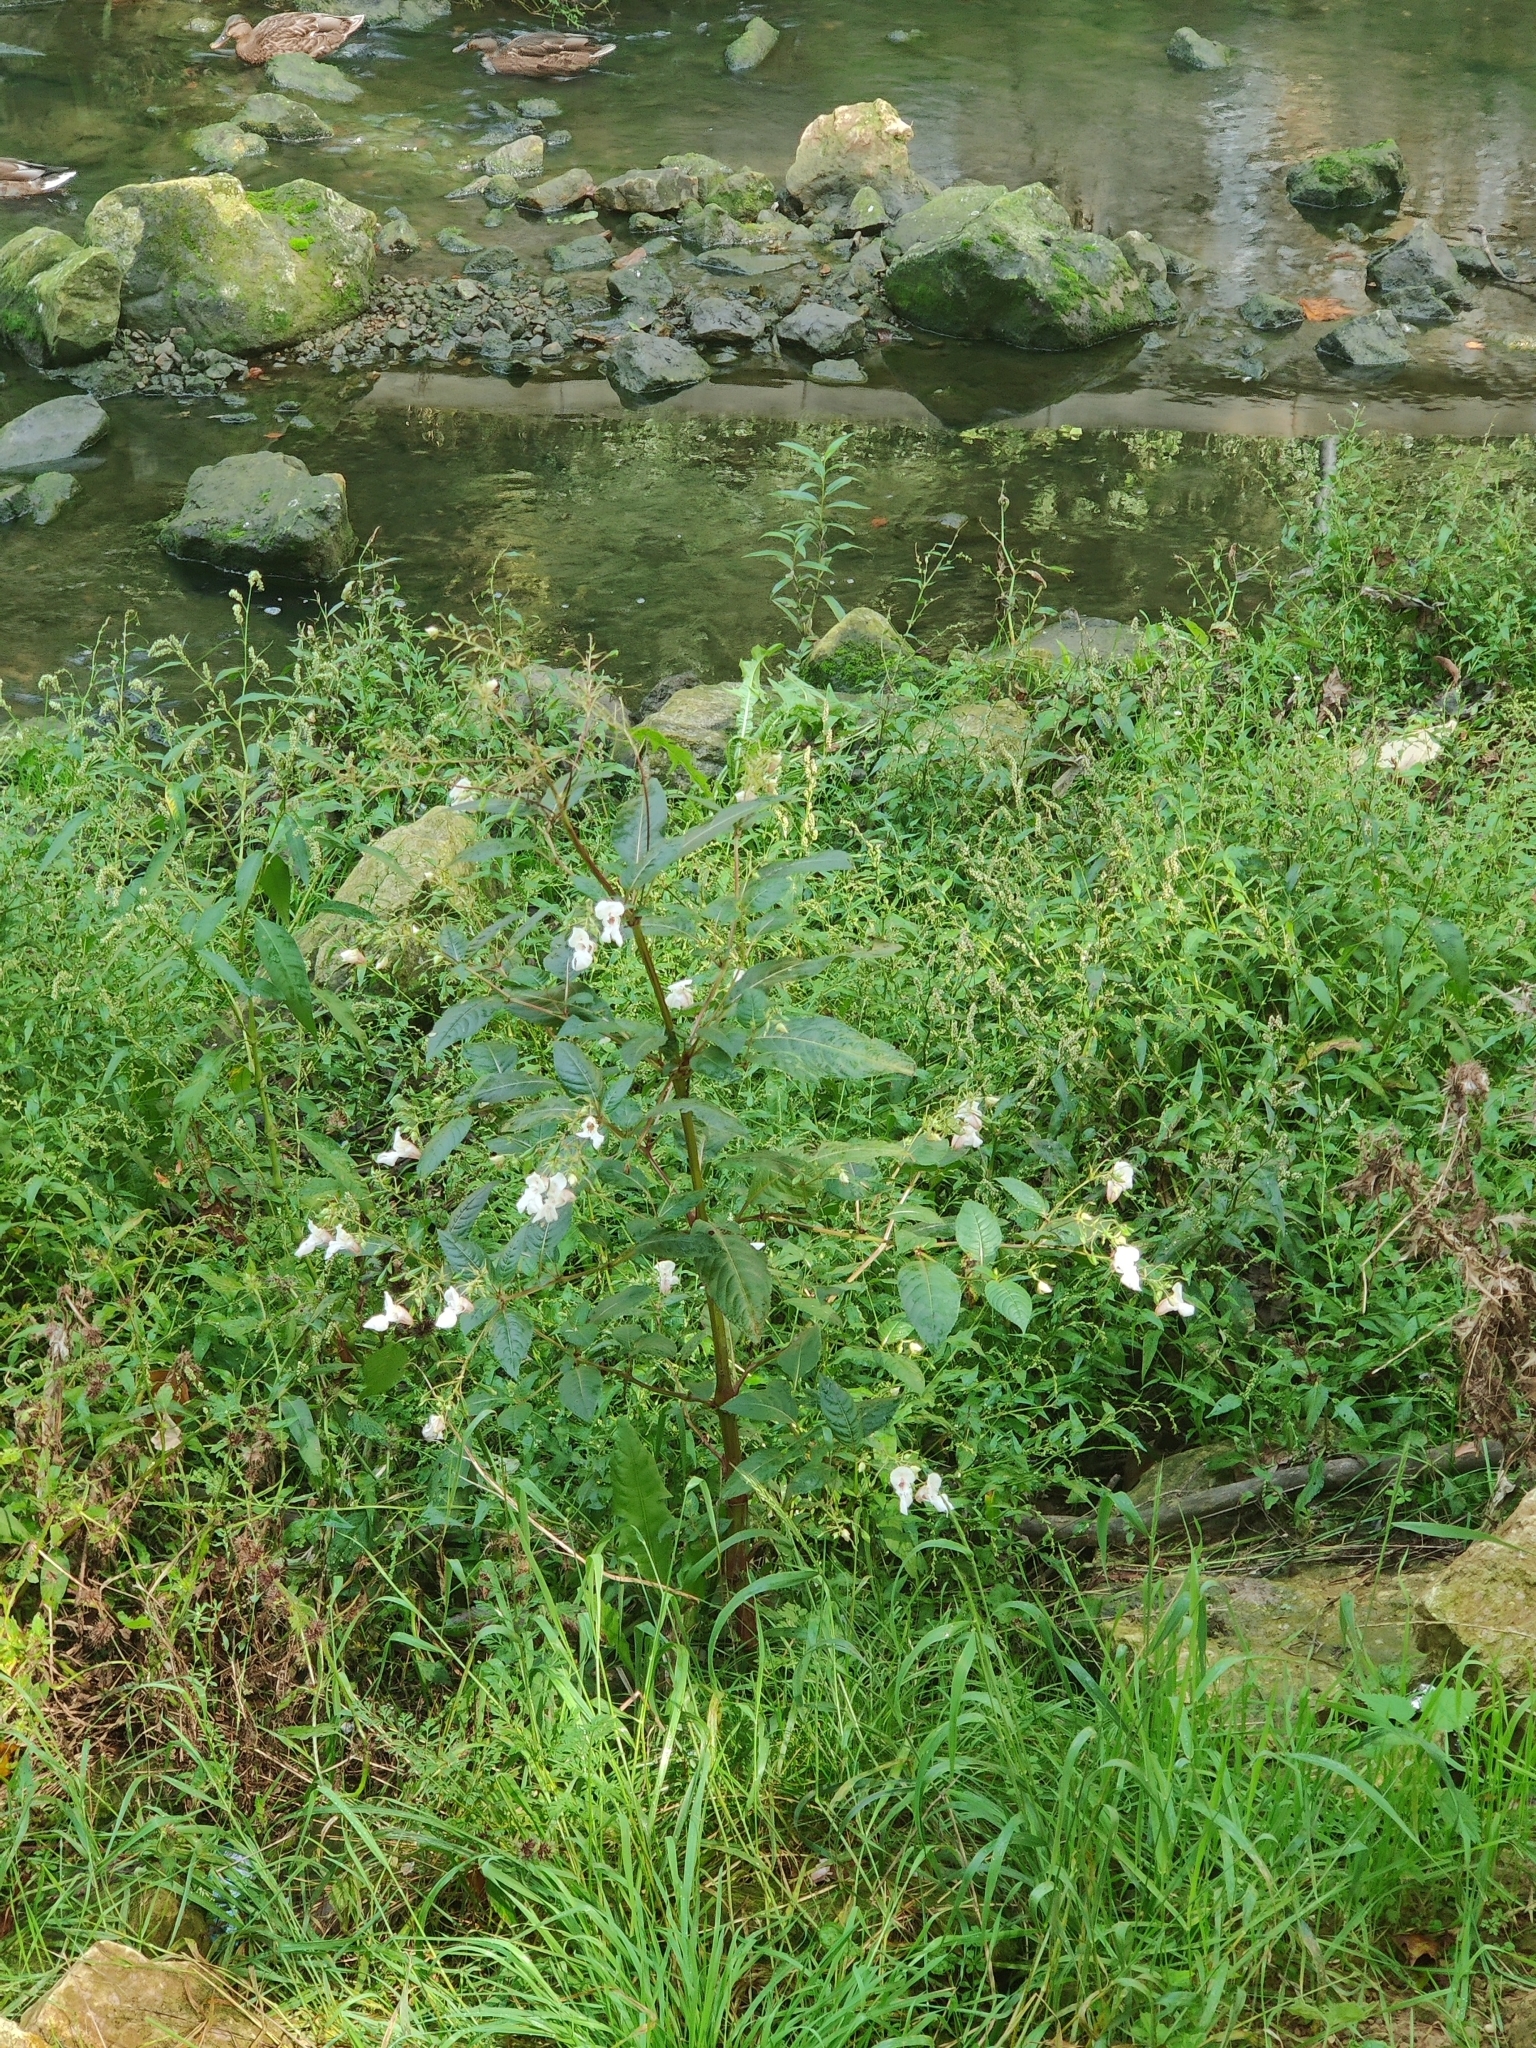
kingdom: Plantae
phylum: Tracheophyta
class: Magnoliopsida
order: Ericales
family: Balsaminaceae
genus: Impatiens
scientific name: Impatiens glandulifera
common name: Himalayan balsam
